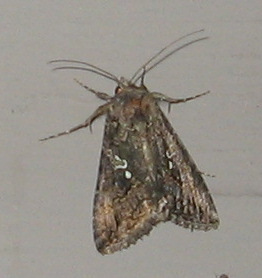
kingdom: Animalia
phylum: Arthropoda
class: Insecta
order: Lepidoptera
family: Noctuidae
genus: Trichoplusia
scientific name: Trichoplusia ni
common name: Ni moth
